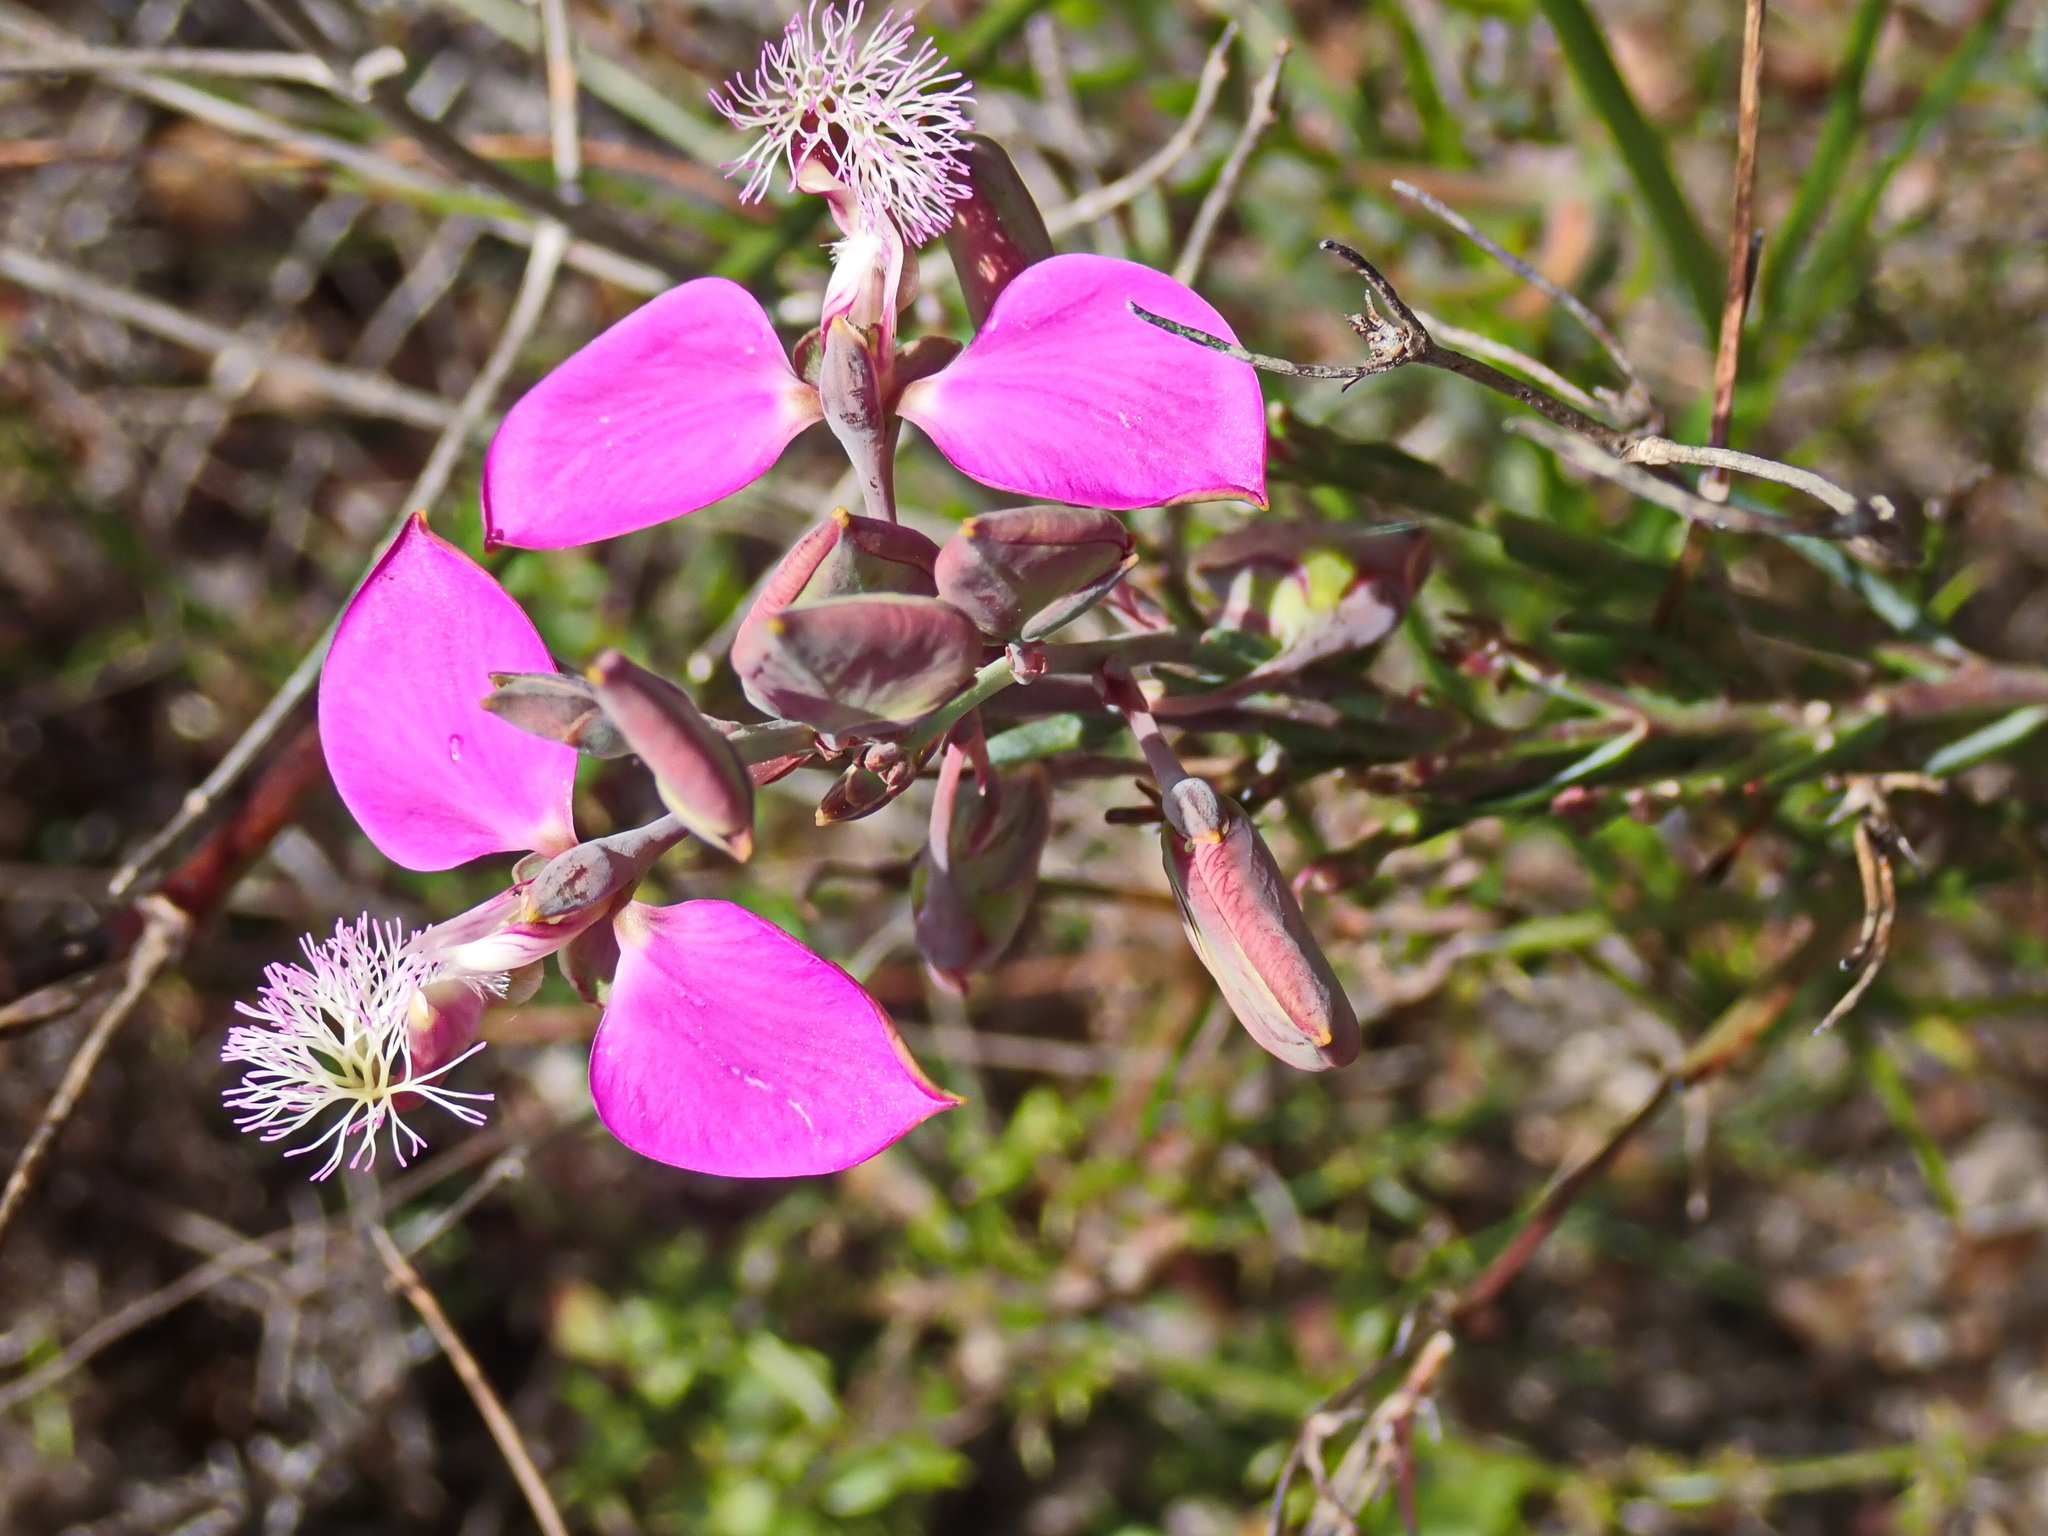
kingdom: Plantae
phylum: Tracheophyta
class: Magnoliopsida
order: Fabales
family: Polygalaceae
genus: Polygala
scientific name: Polygala bracteolata
